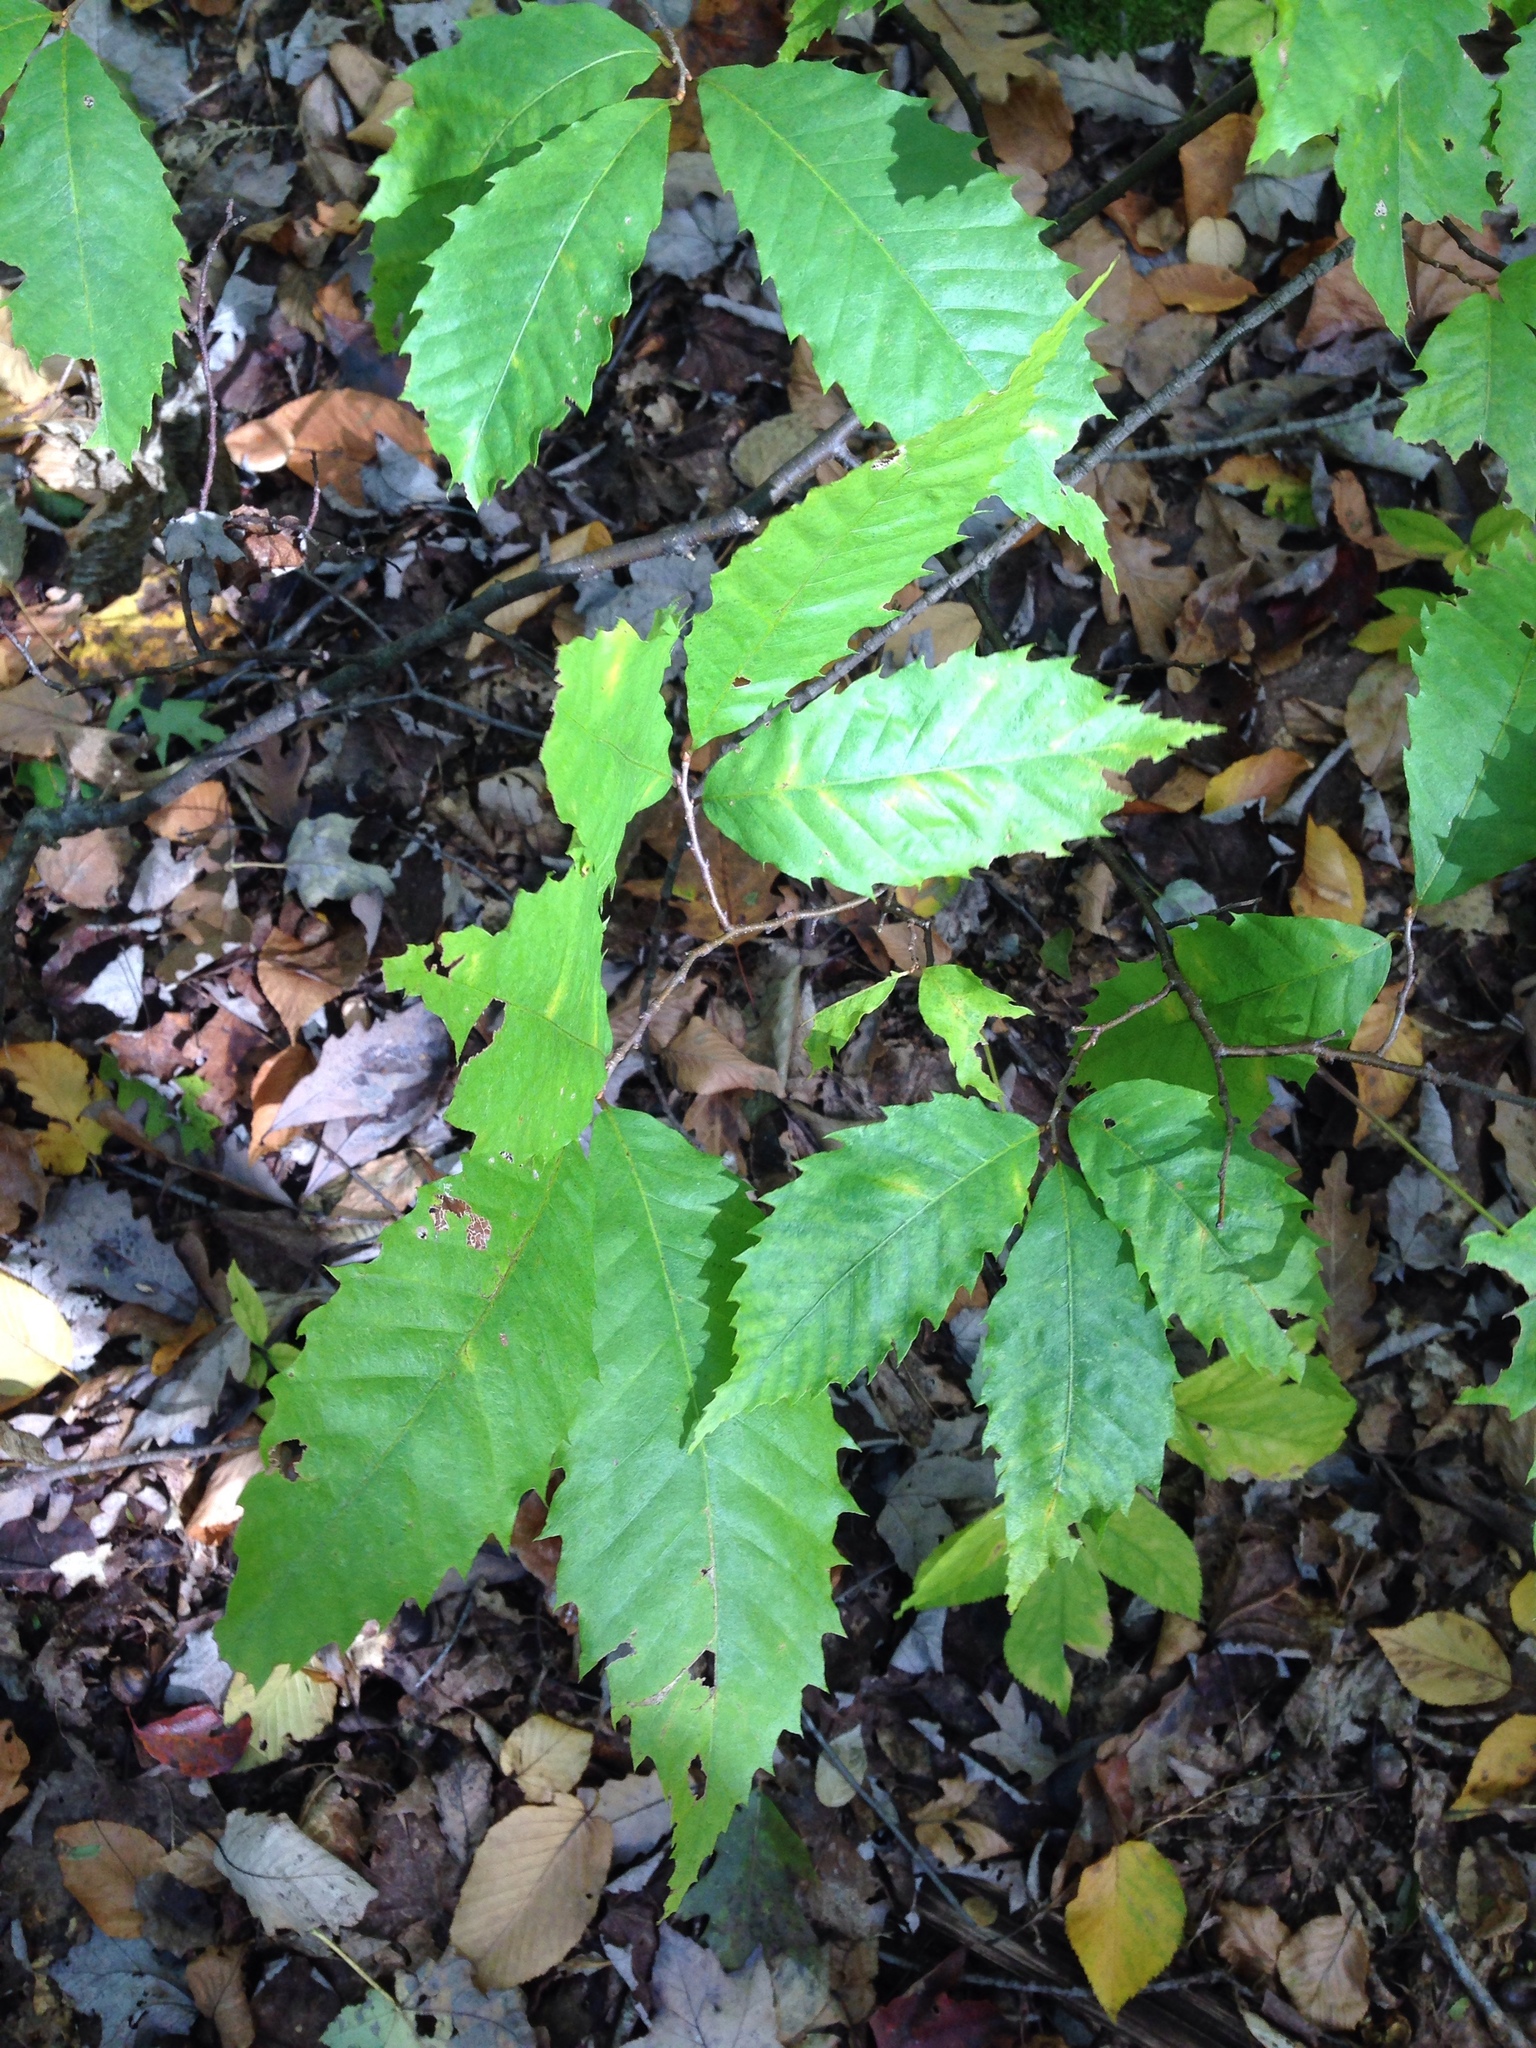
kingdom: Plantae
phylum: Tracheophyta
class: Magnoliopsida
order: Fagales
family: Fagaceae
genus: Castanea
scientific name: Castanea dentata
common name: American chestnut
